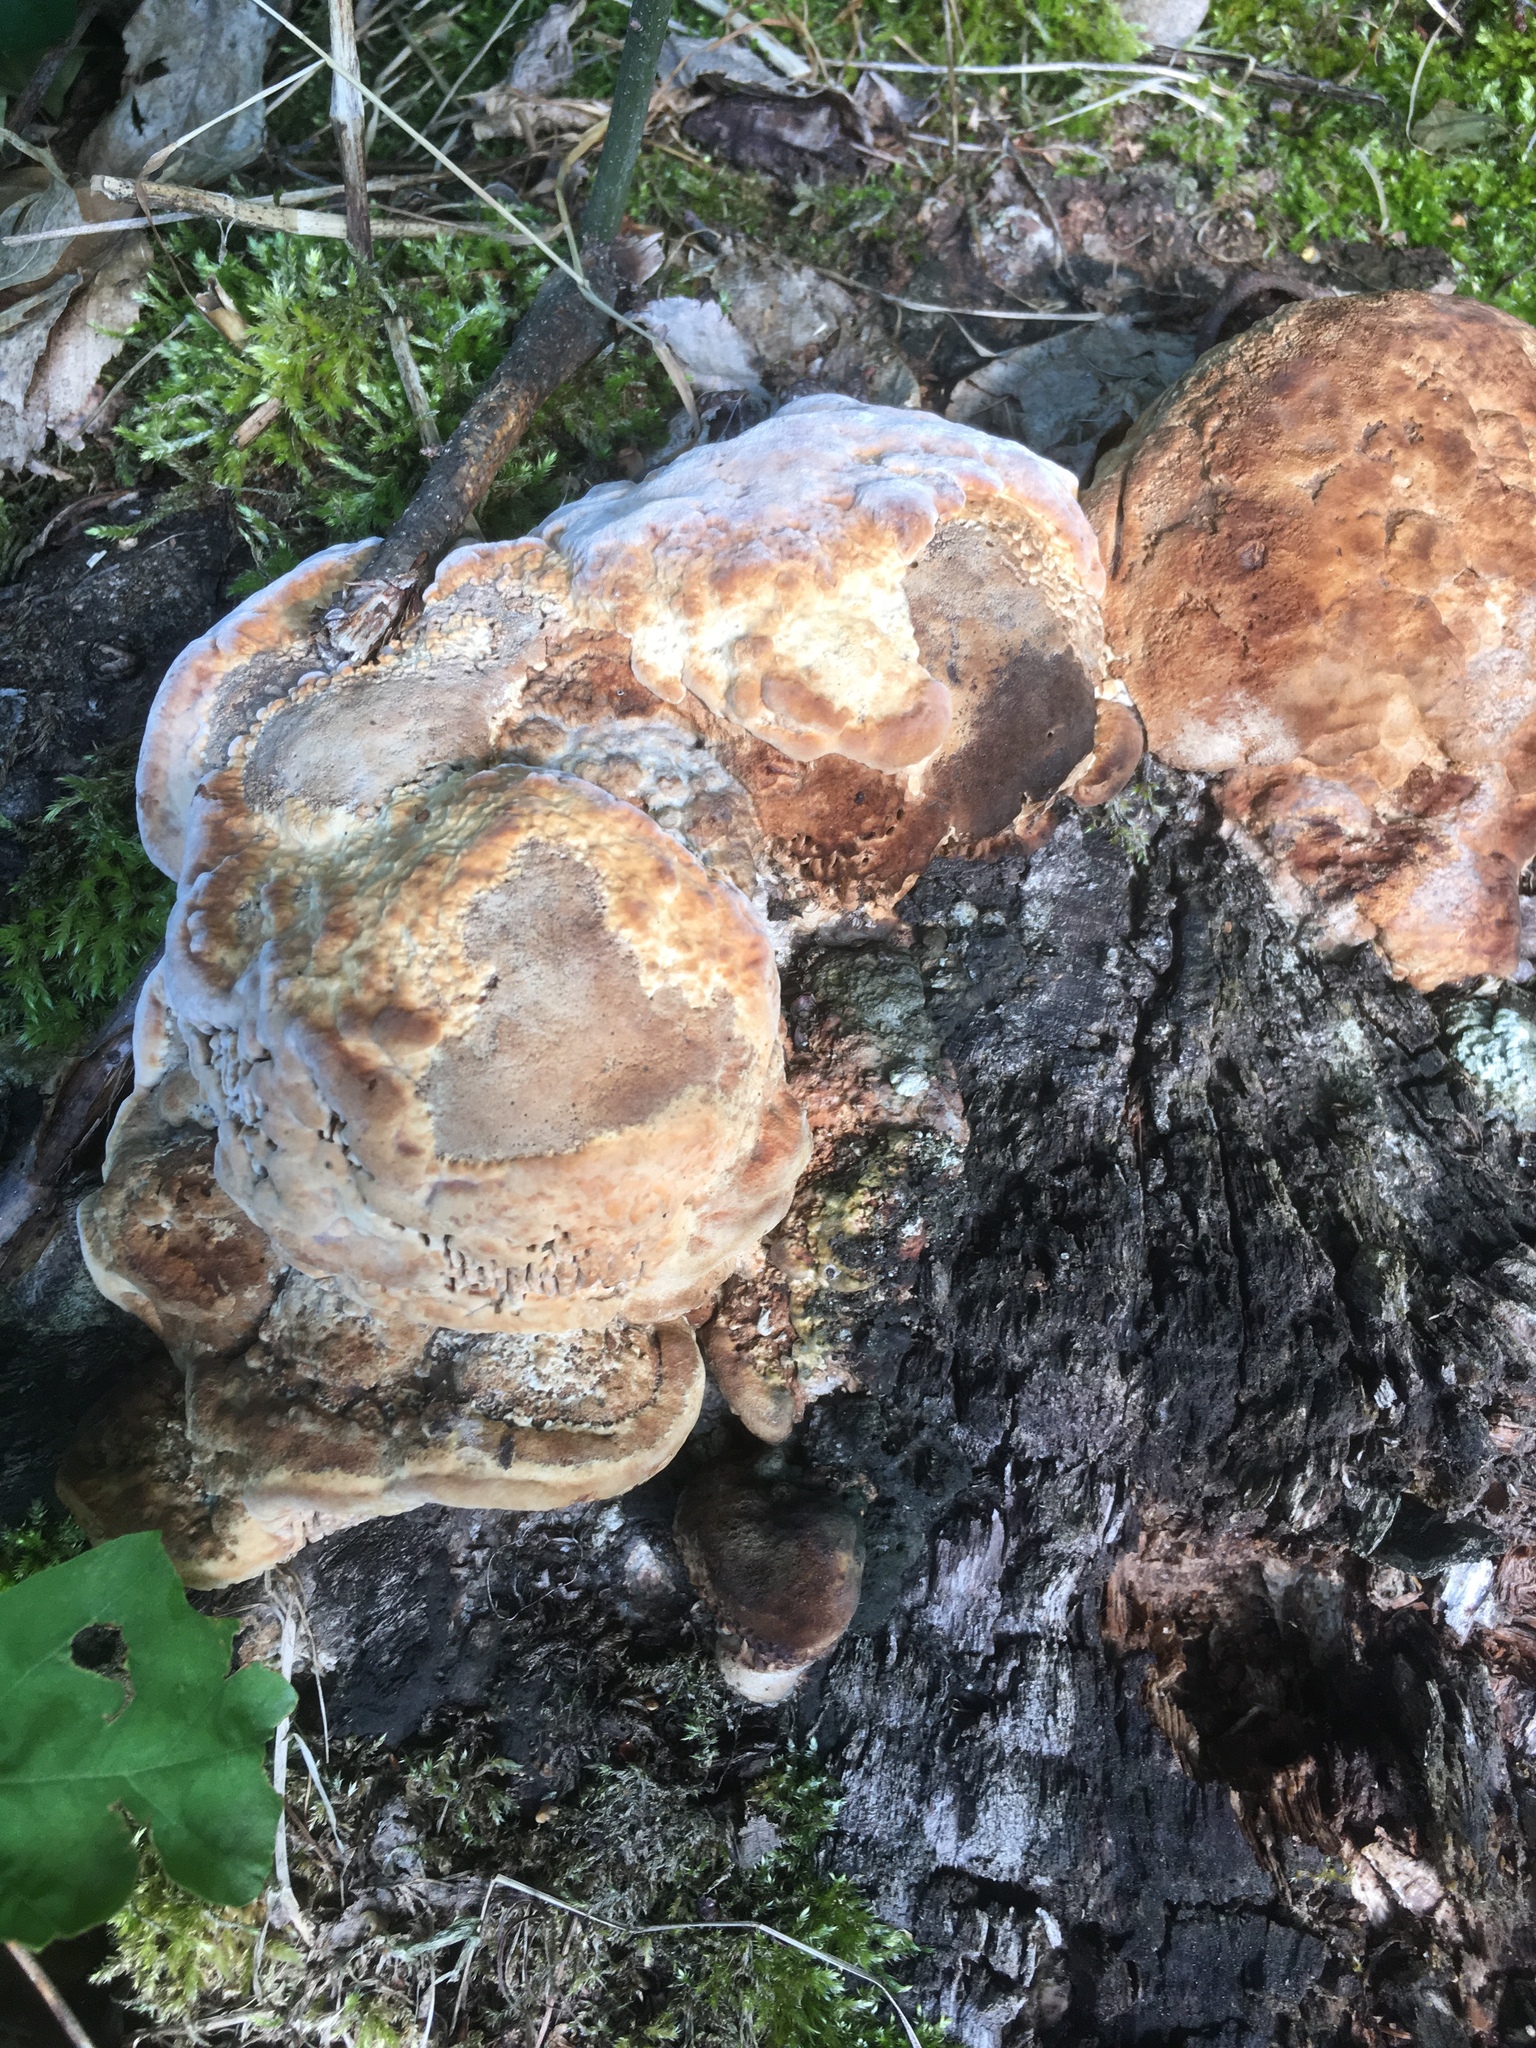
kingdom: Fungi
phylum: Basidiomycota
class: Agaricomycetes
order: Hymenochaetales
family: Hymenochaetaceae
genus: Pseudoinonotus
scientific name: Pseudoinonotus dryadeus
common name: Oak bracket
